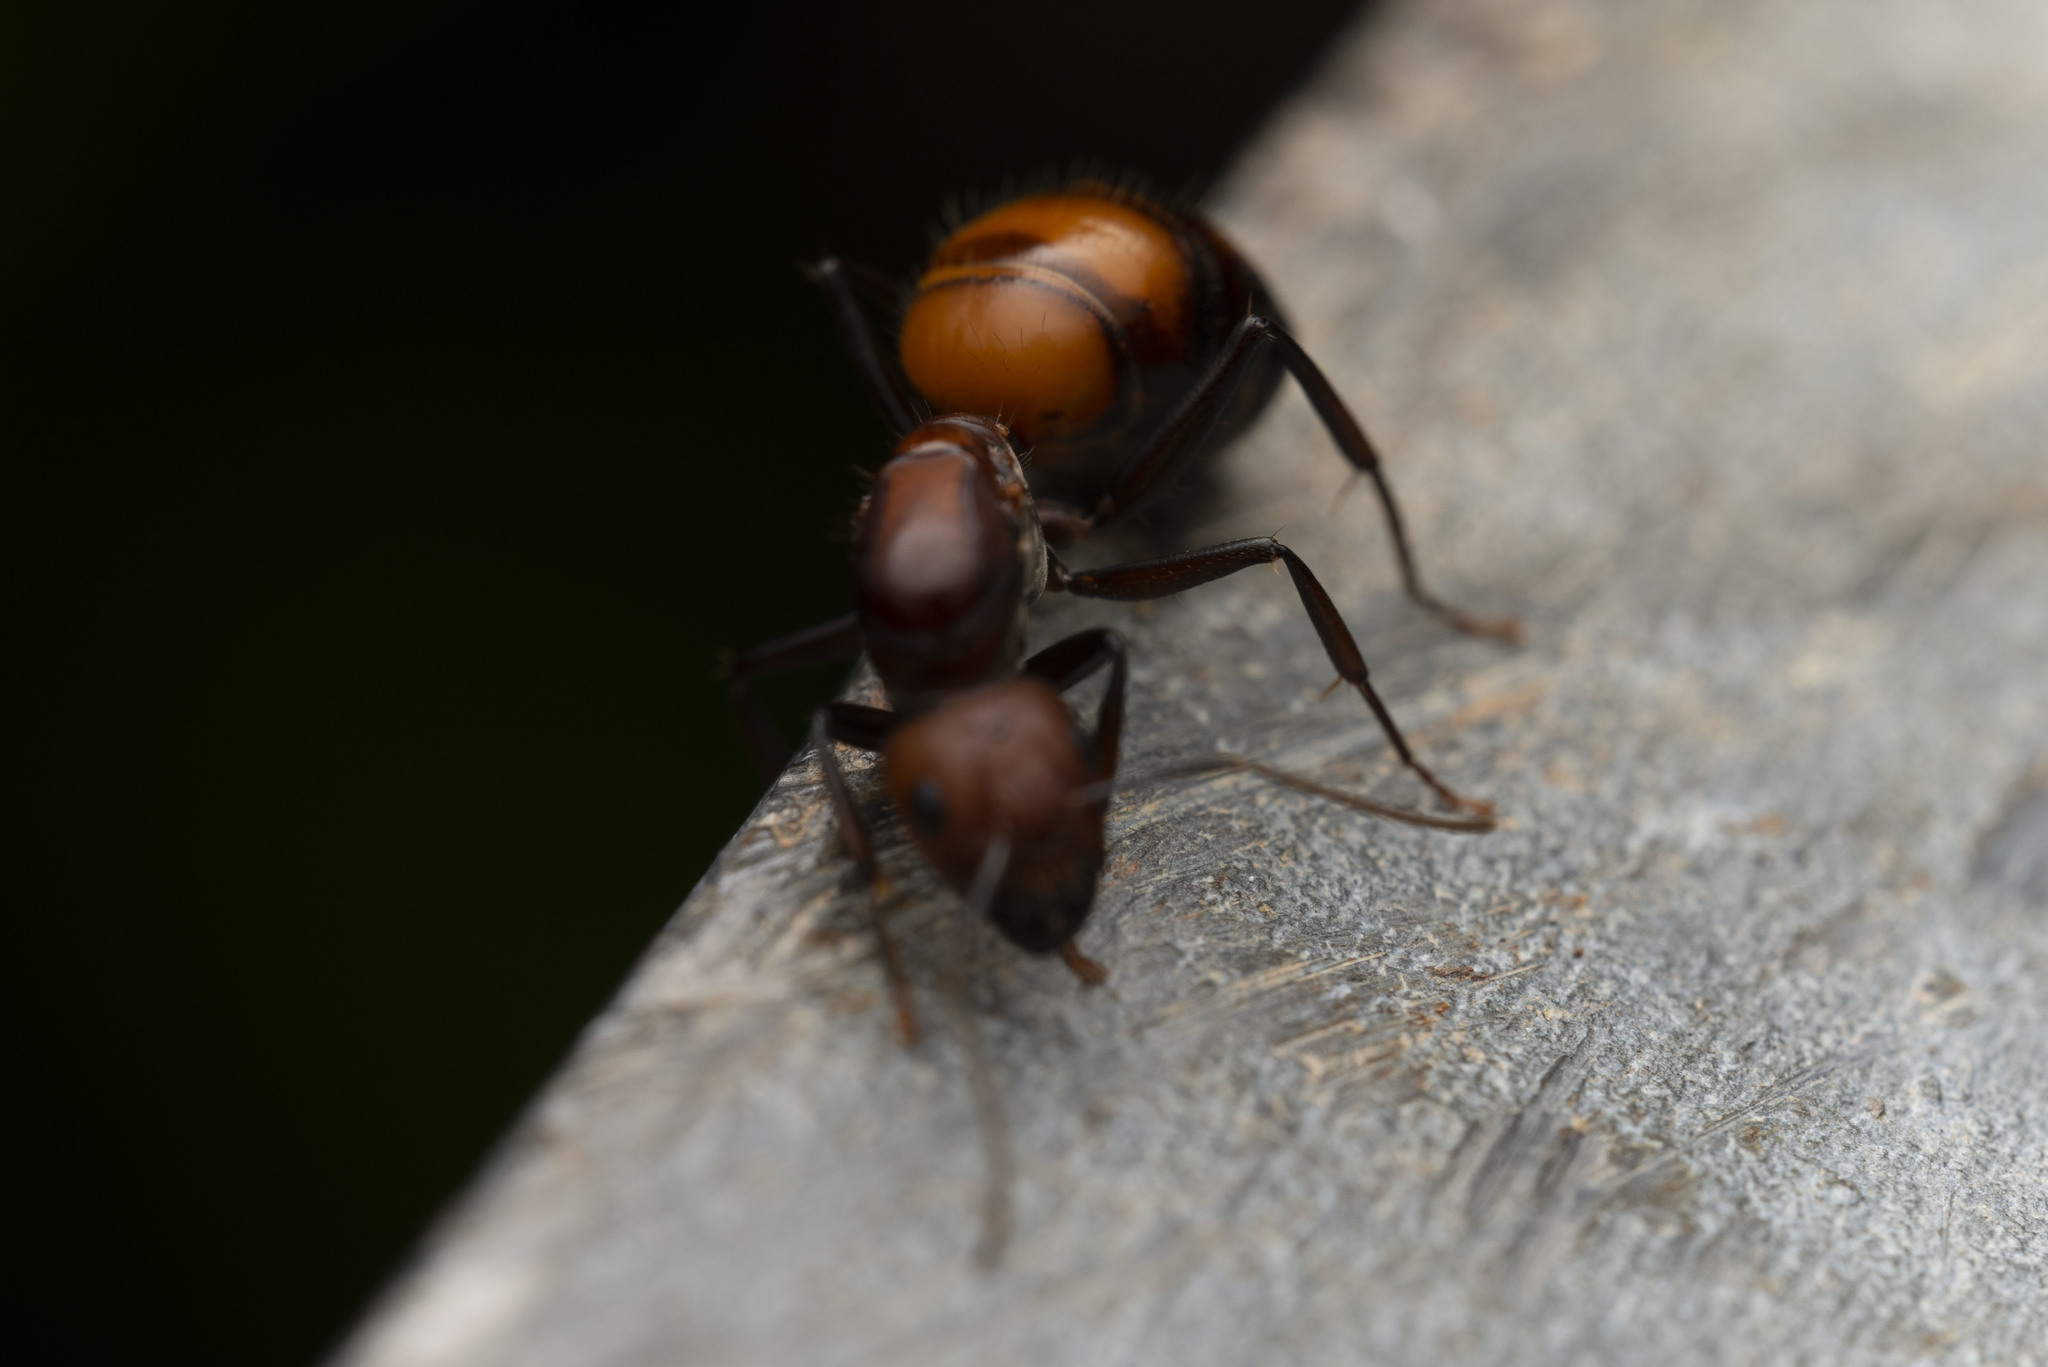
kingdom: Animalia
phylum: Arthropoda
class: Insecta
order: Hymenoptera
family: Formicidae
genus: Camponotus
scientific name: Camponotus nicobarensis
